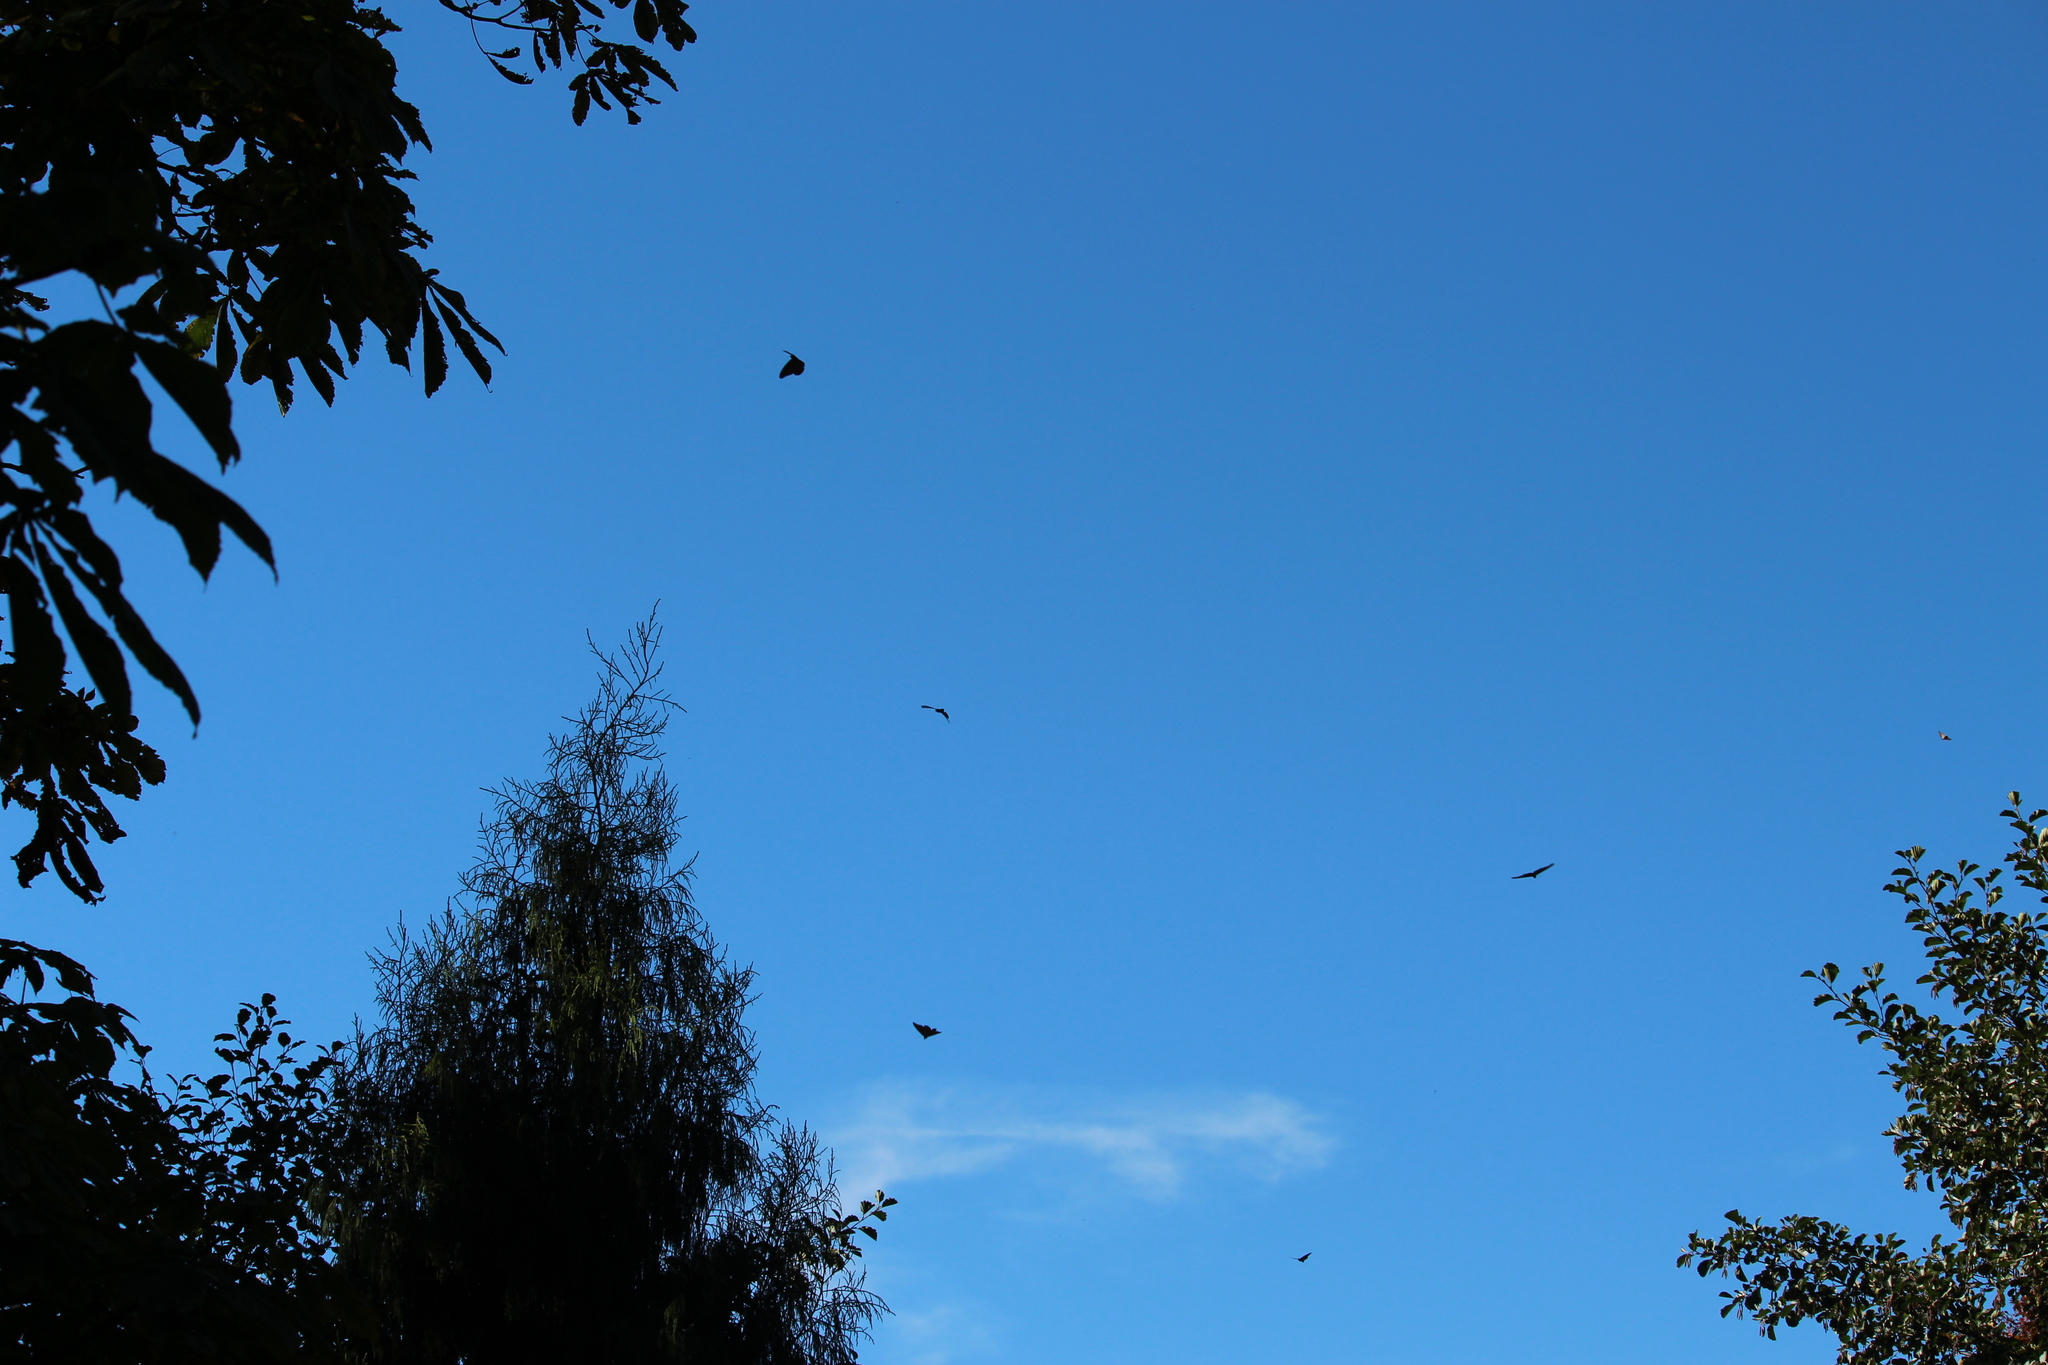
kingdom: Animalia
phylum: Arthropoda
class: Insecta
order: Lepidoptera
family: Nymphalidae
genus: Danaus
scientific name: Danaus plexippus
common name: Monarch
